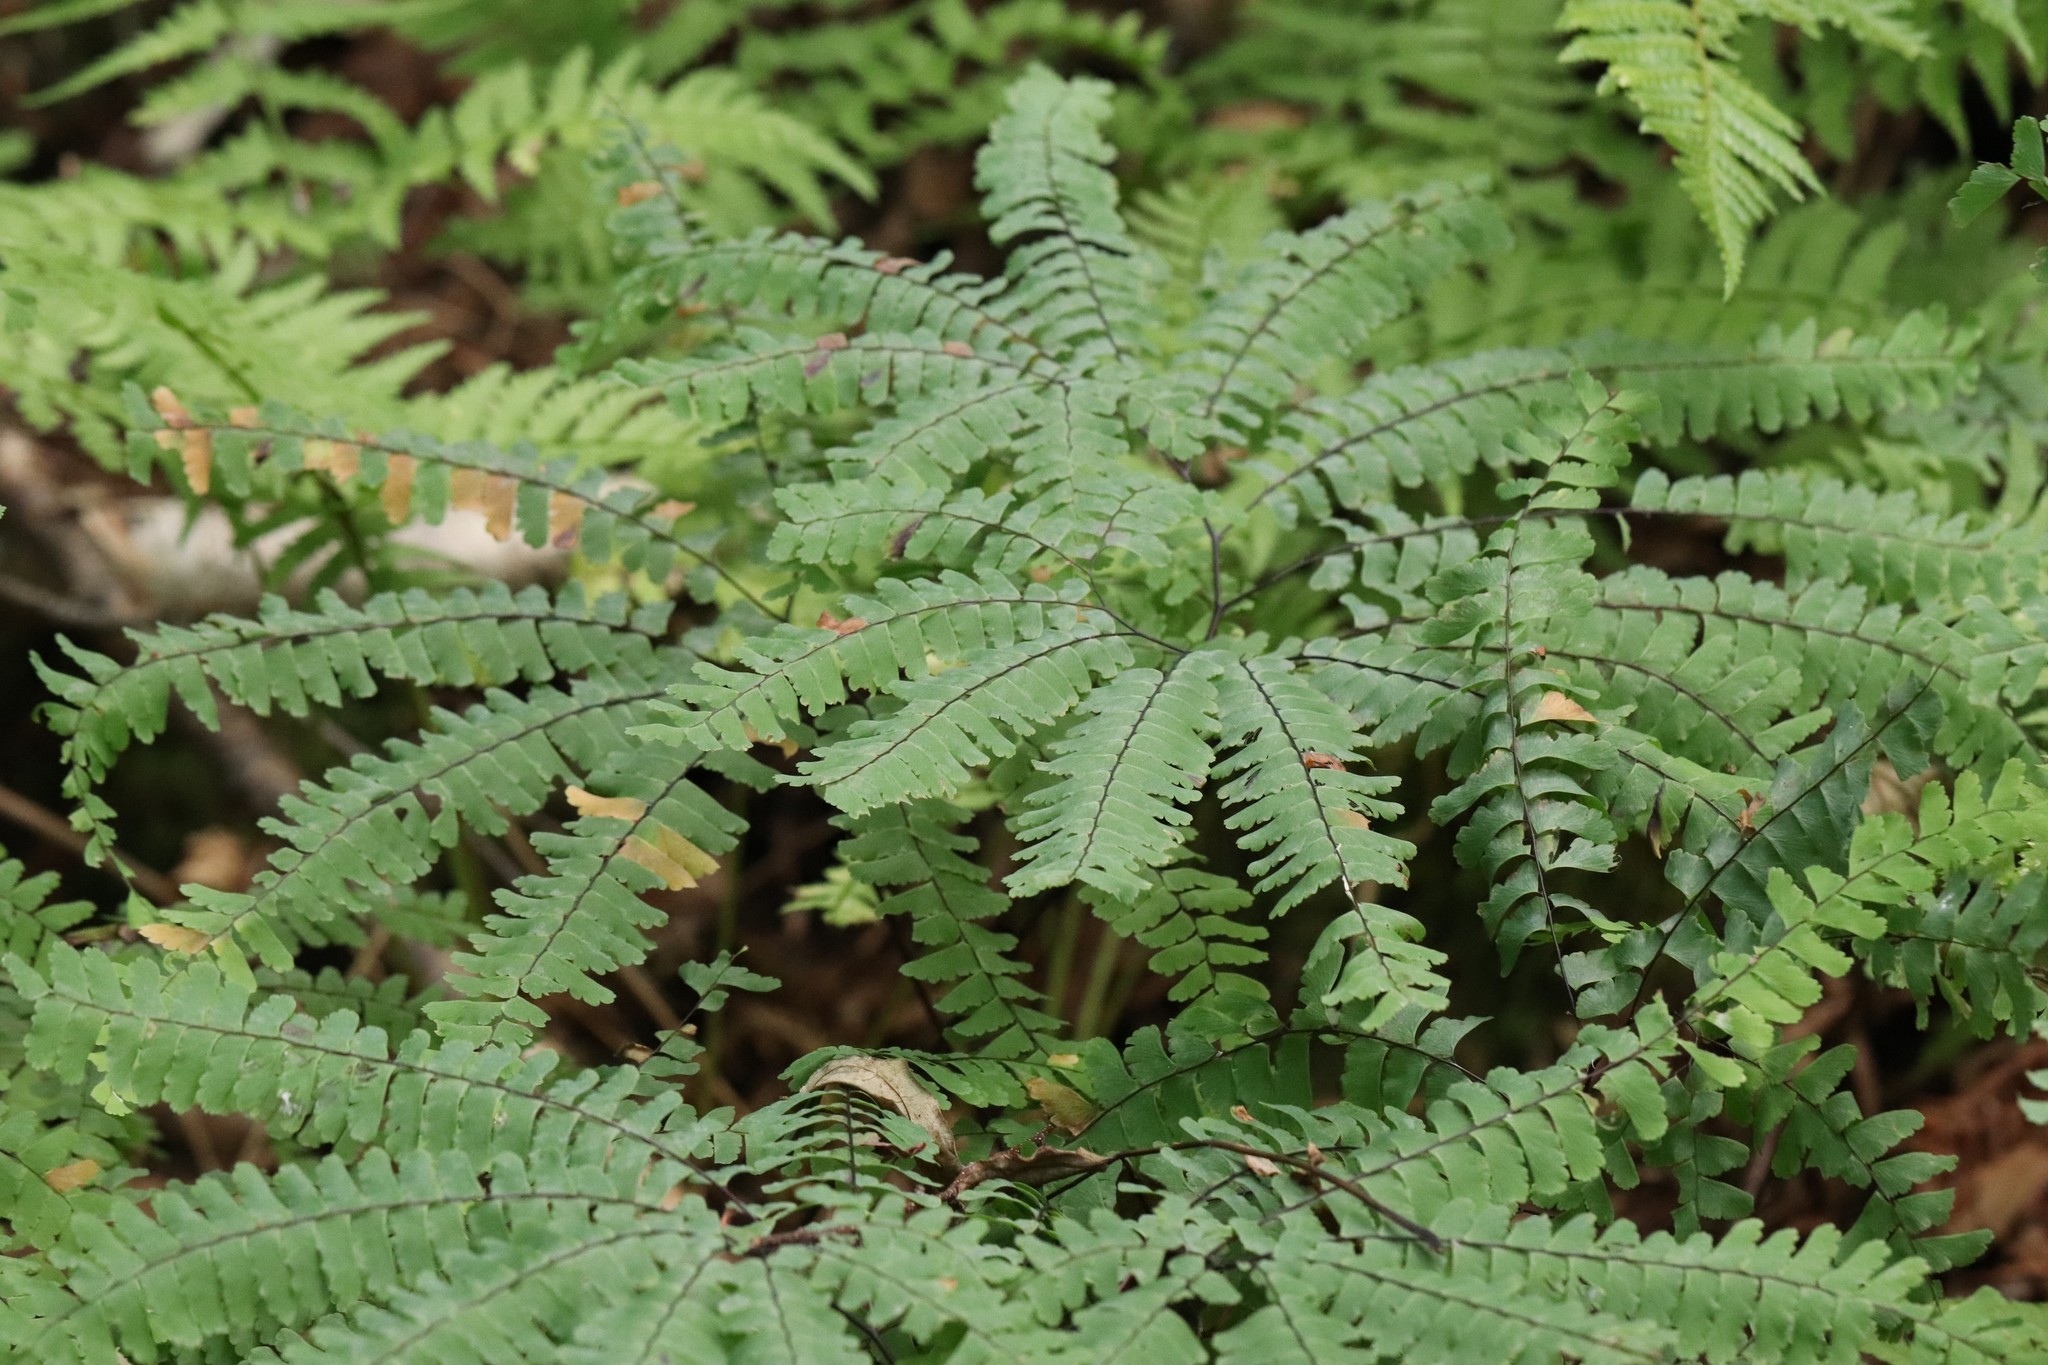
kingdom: Plantae
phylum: Tracheophyta
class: Polypodiopsida
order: Polypodiales
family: Pteridaceae
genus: Adiantum
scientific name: Adiantum pedatum
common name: Five-finger fern
